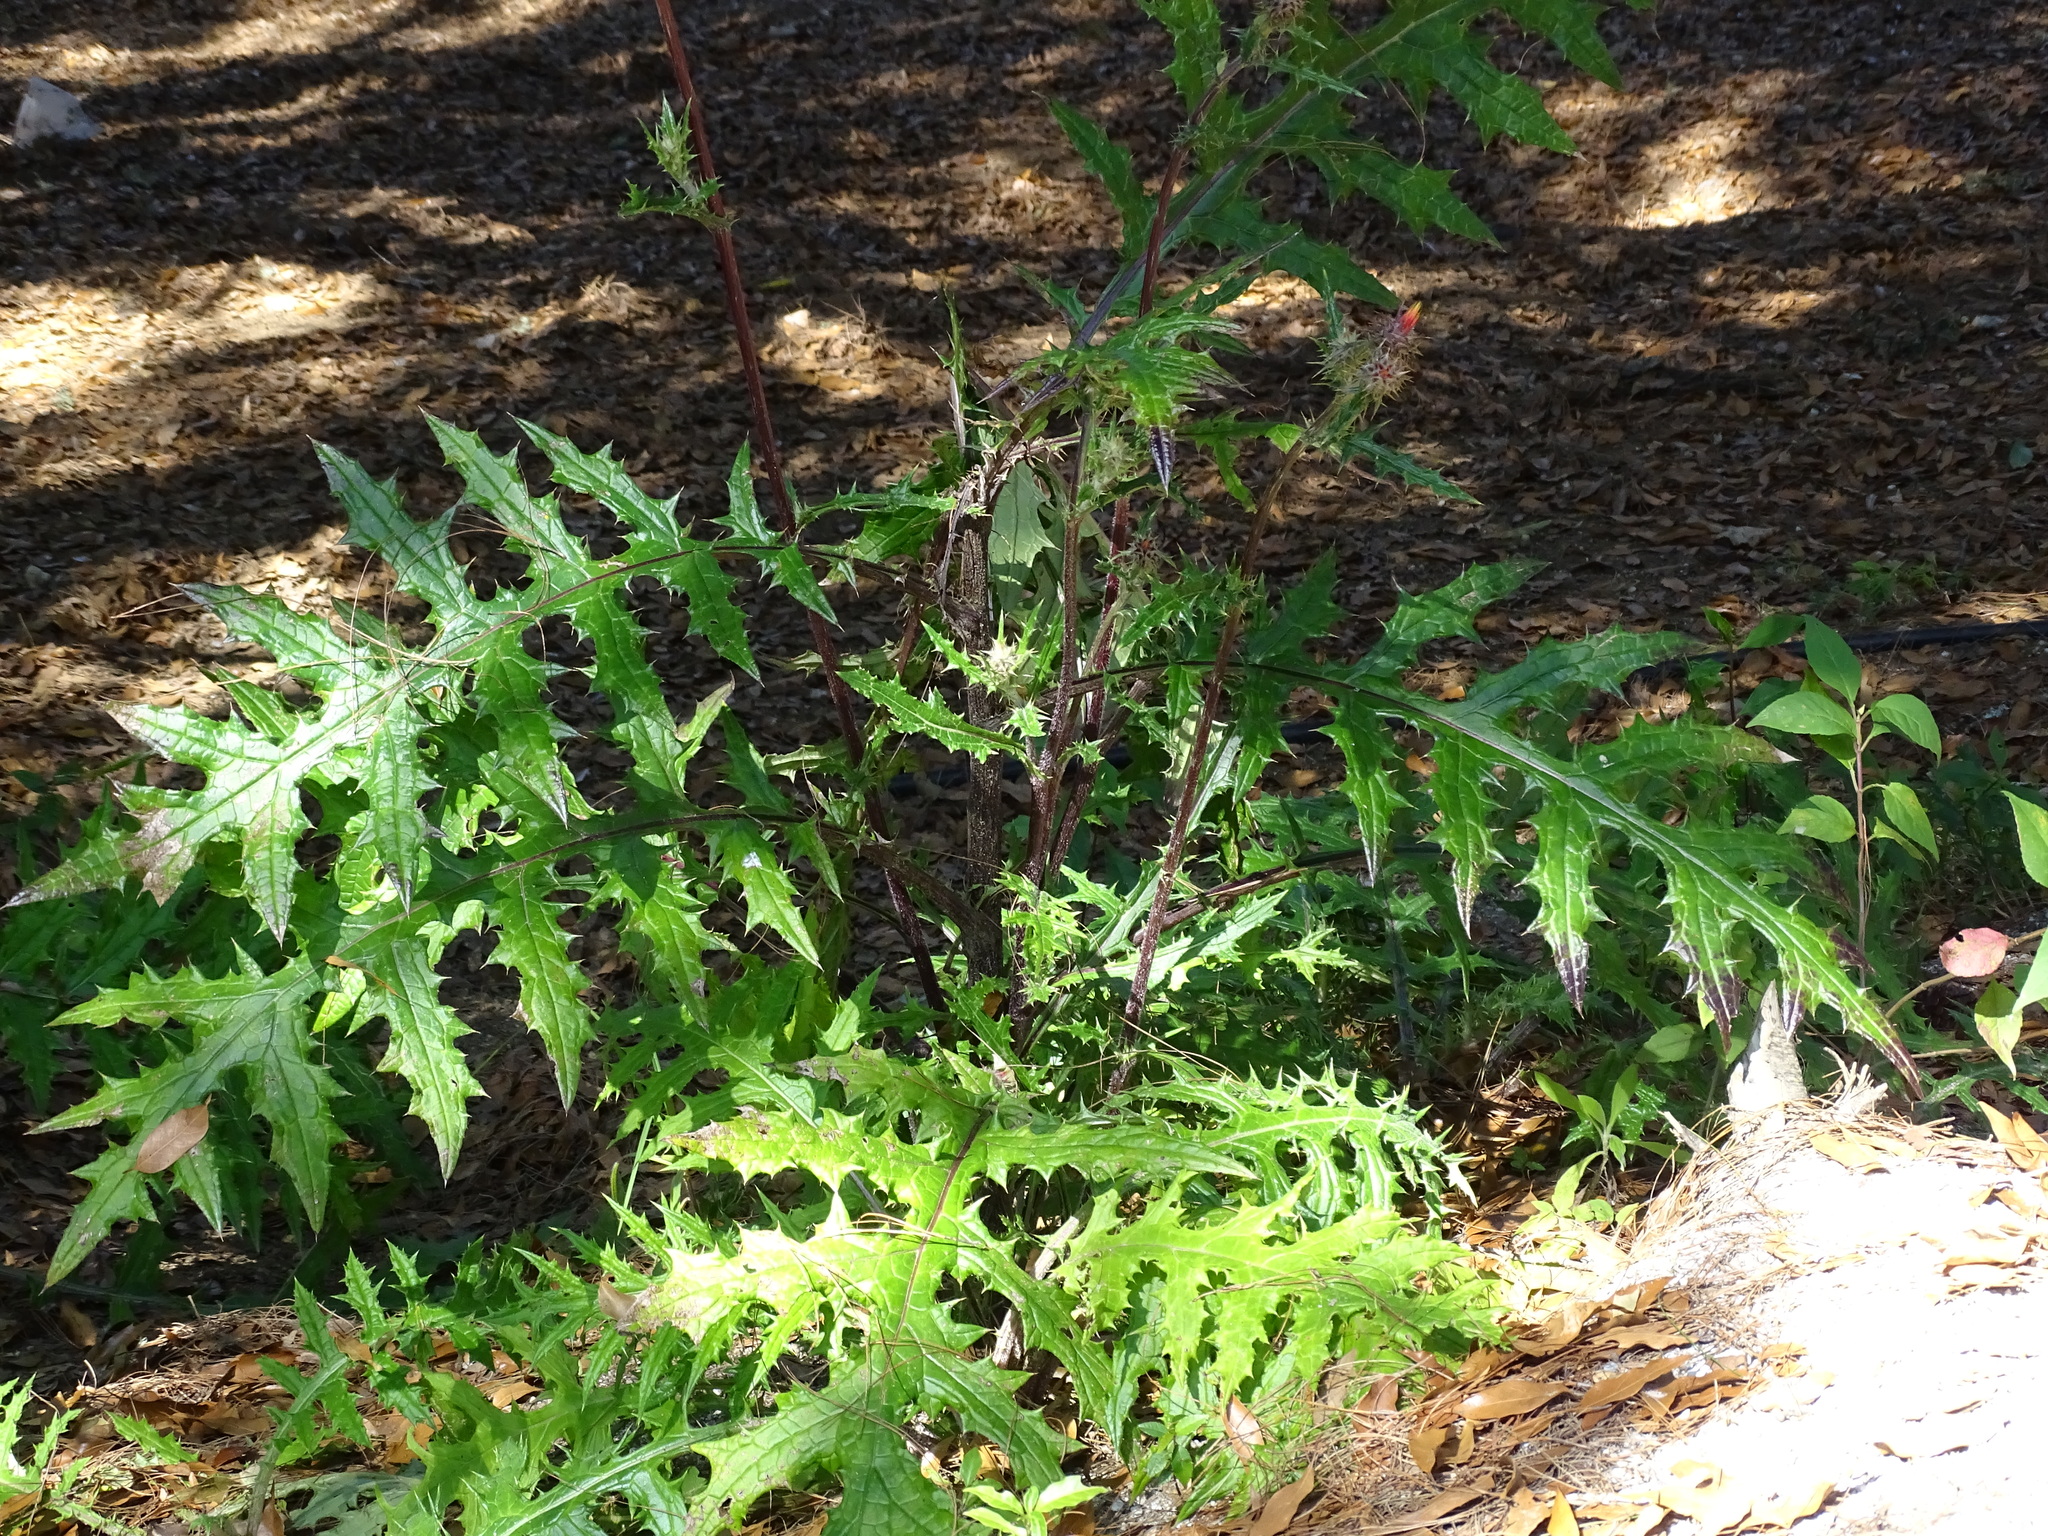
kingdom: Plantae
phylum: Tracheophyta
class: Magnoliopsida
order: Asterales
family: Asteraceae
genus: Cirsium
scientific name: Cirsium ehrenbergii
